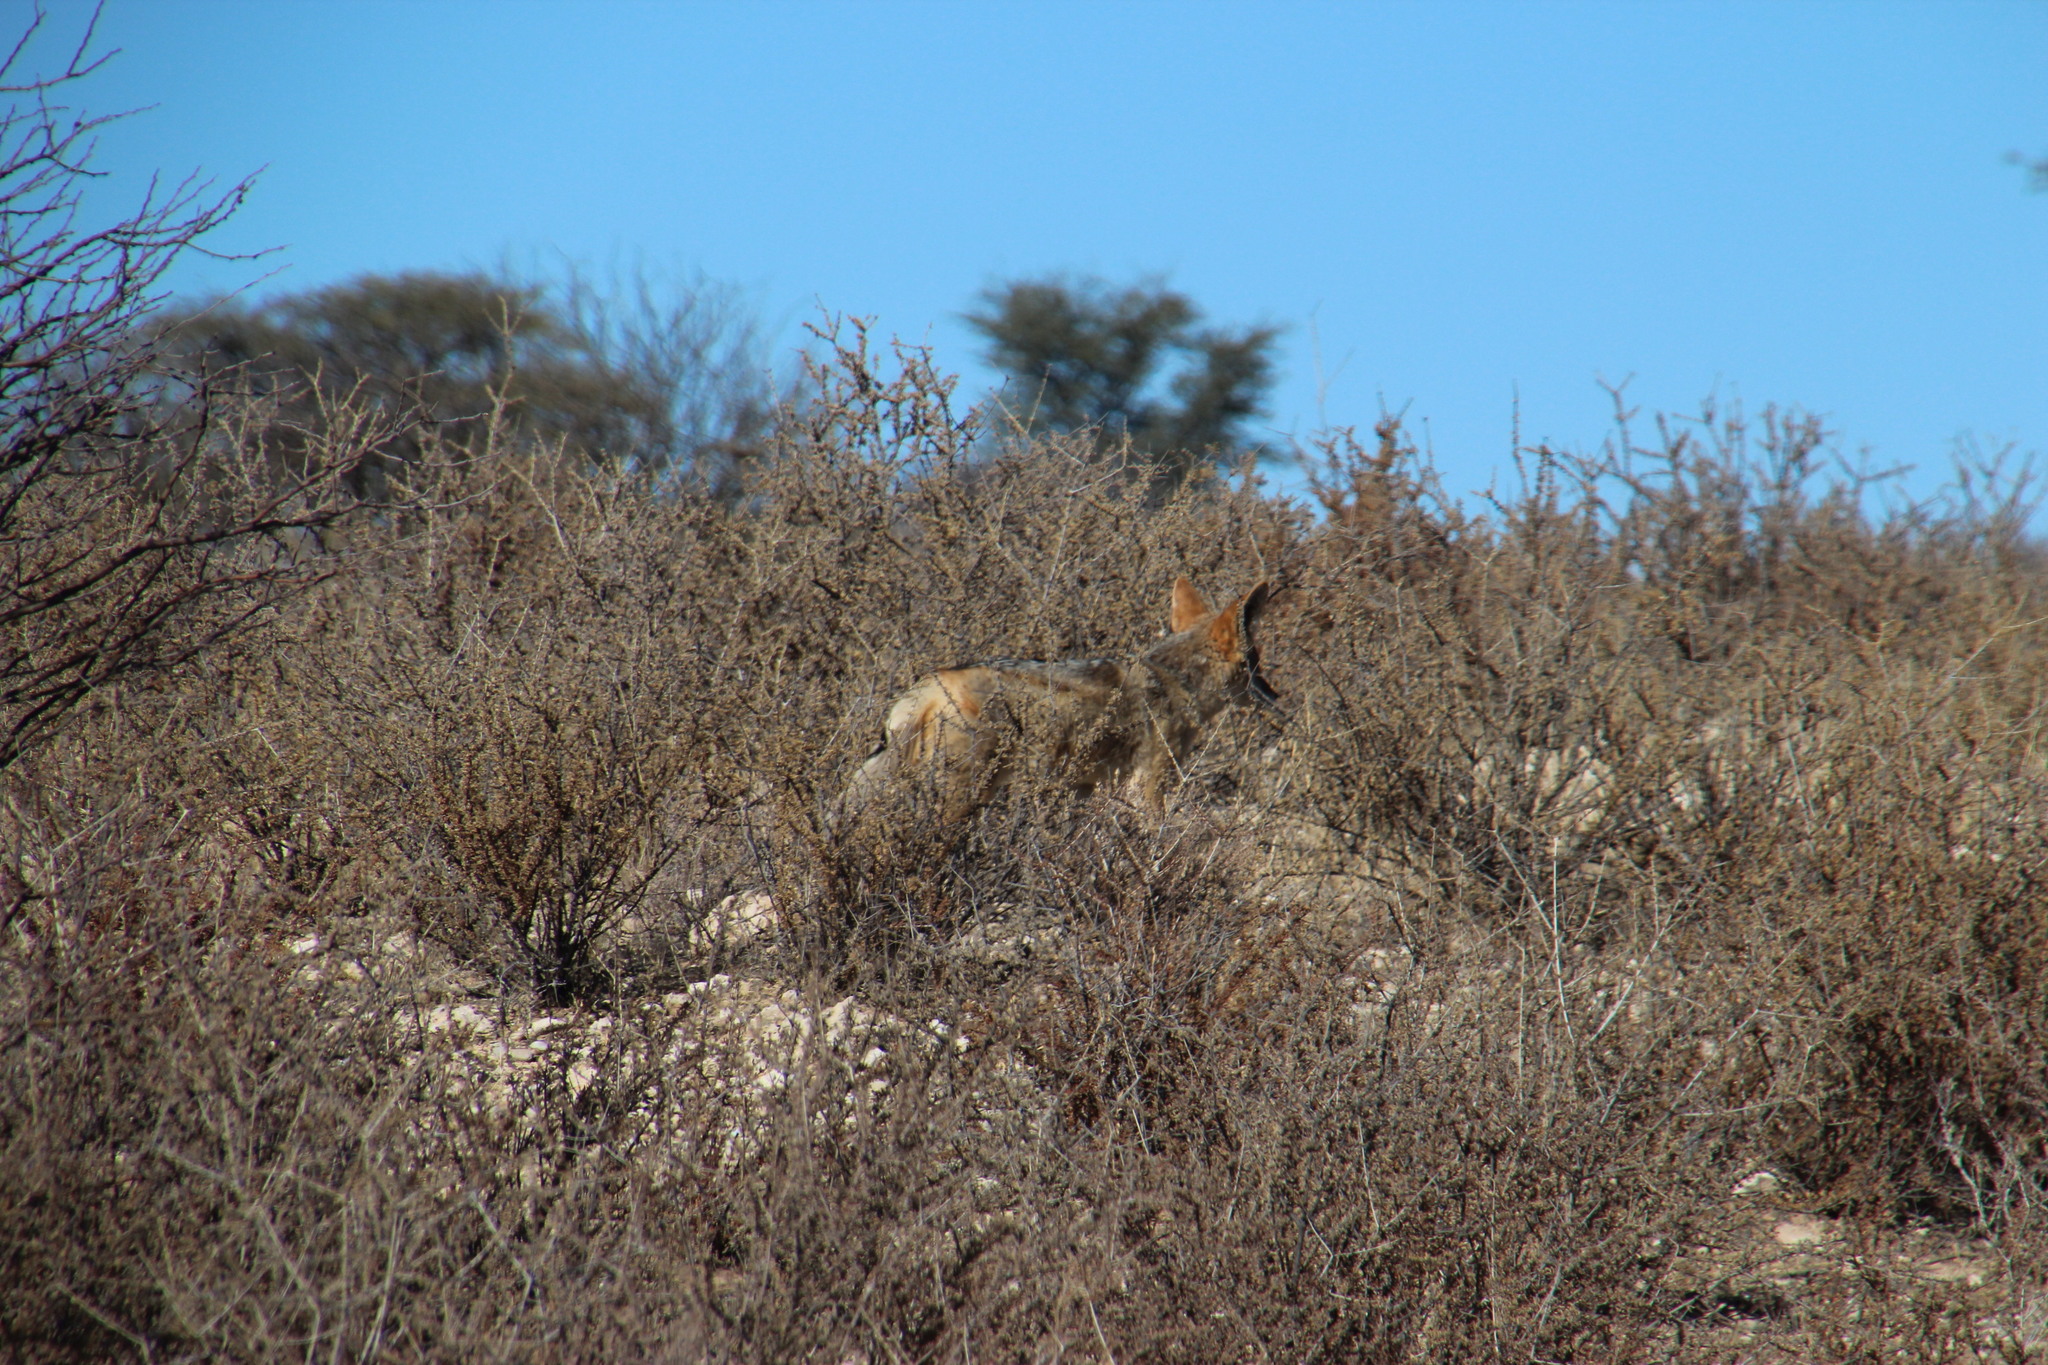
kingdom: Animalia
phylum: Chordata
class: Mammalia
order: Carnivora
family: Canidae
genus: Lupulella
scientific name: Lupulella
